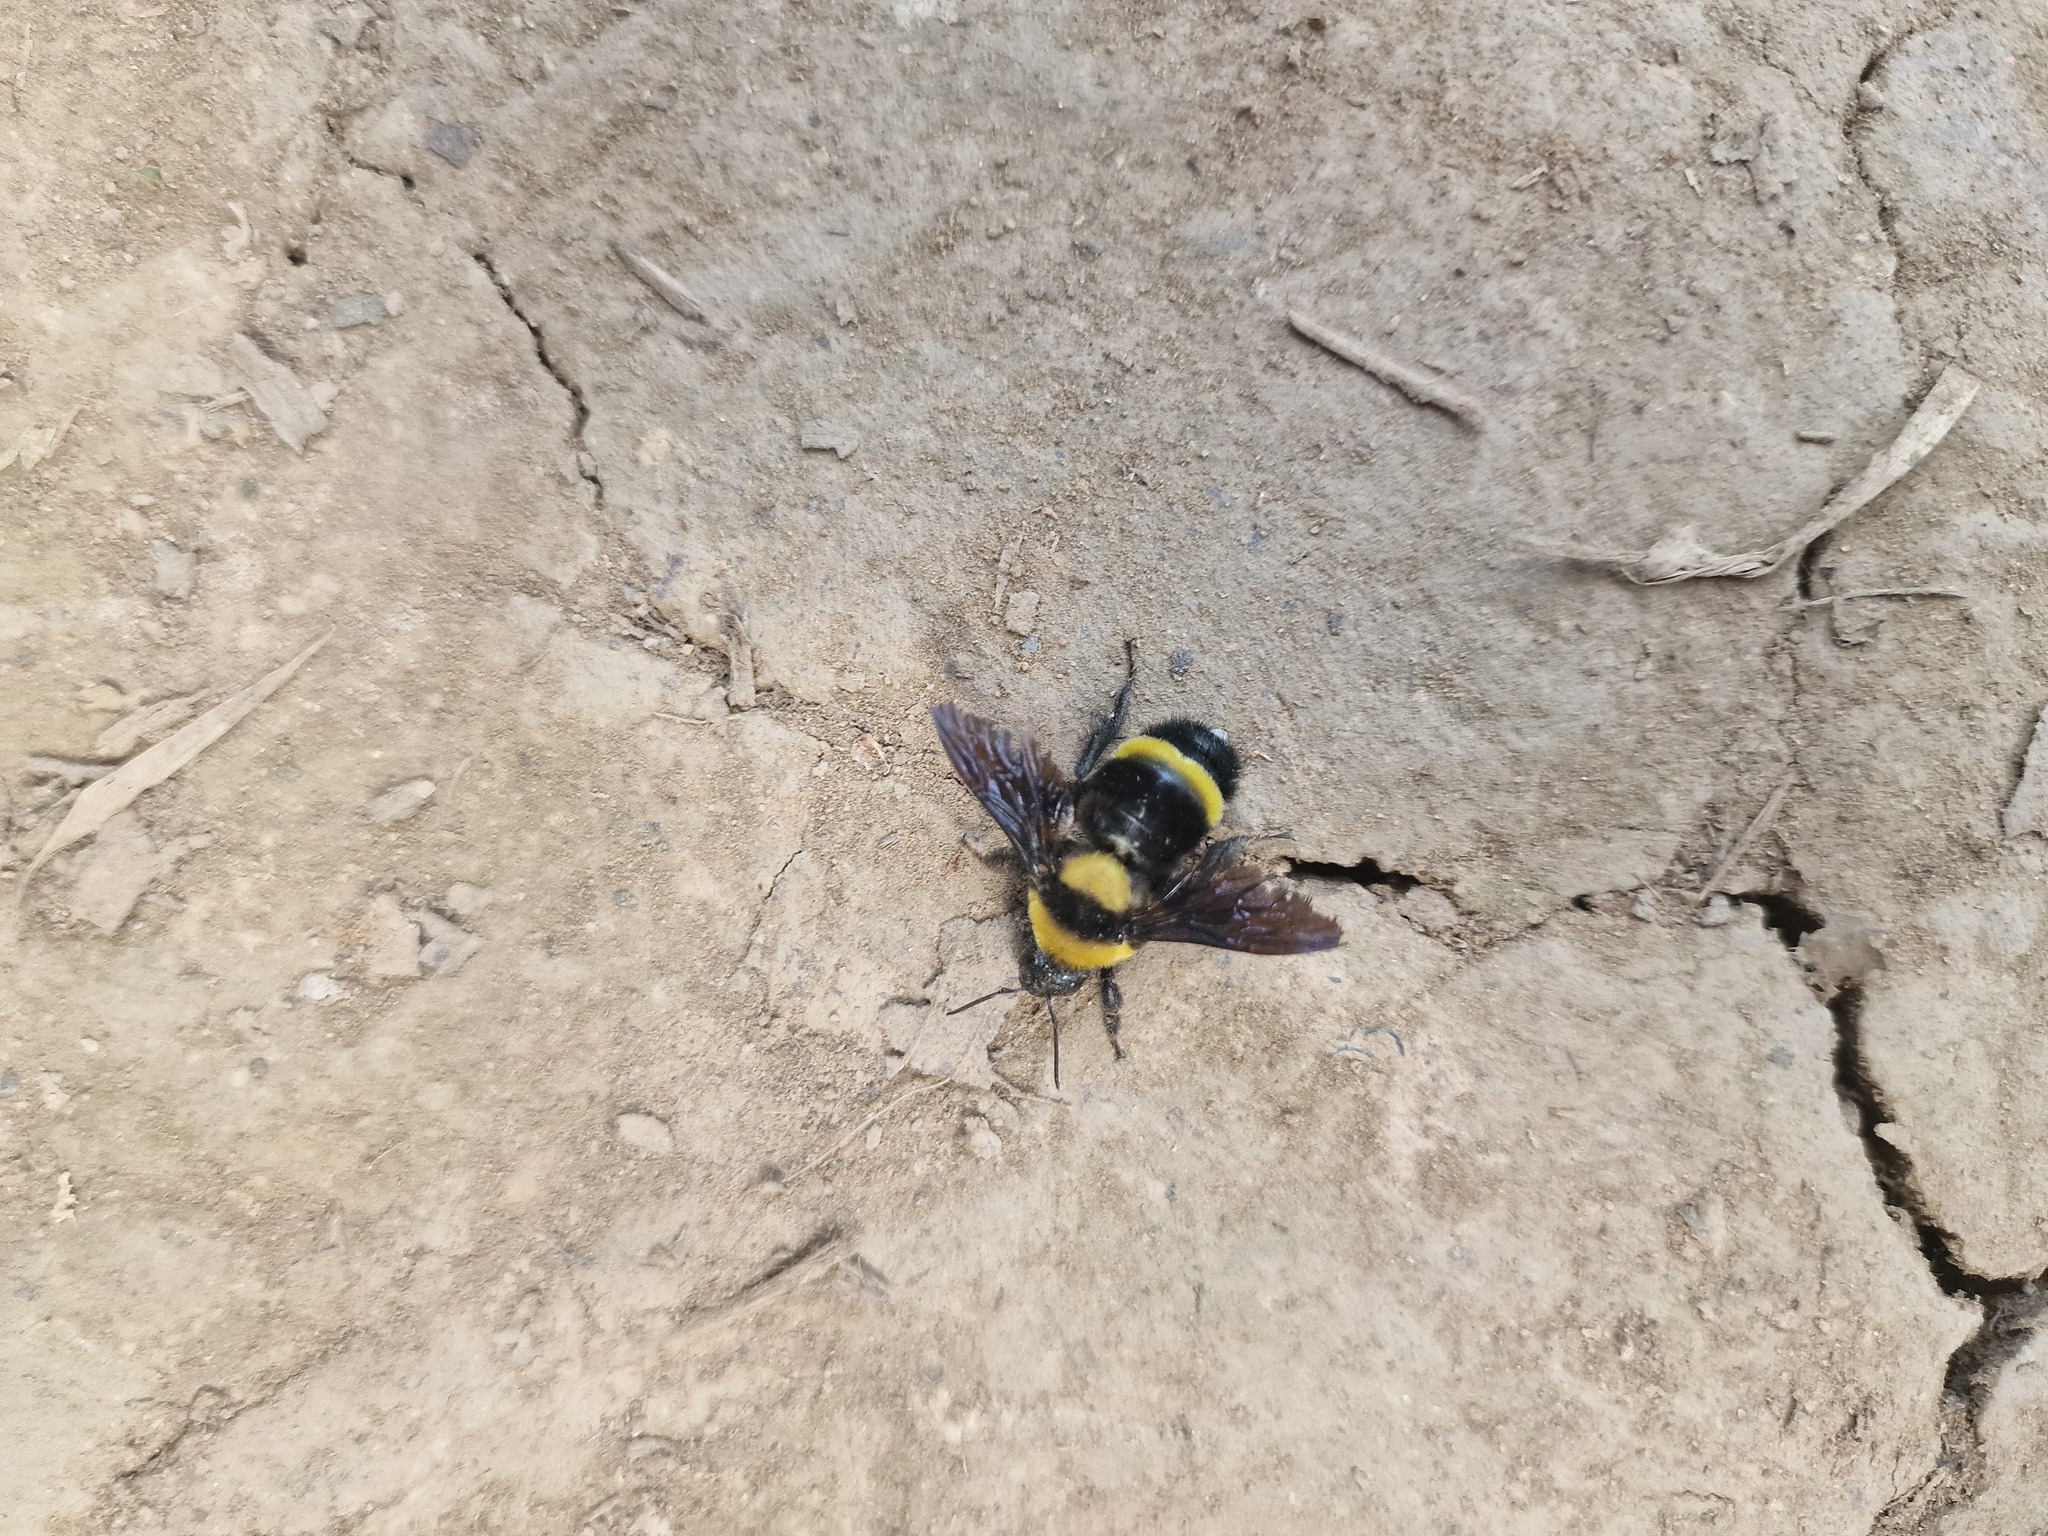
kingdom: Animalia
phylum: Arthropoda
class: Insecta
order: Hymenoptera
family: Apidae
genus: Bombus
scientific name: Bombus transversalis
